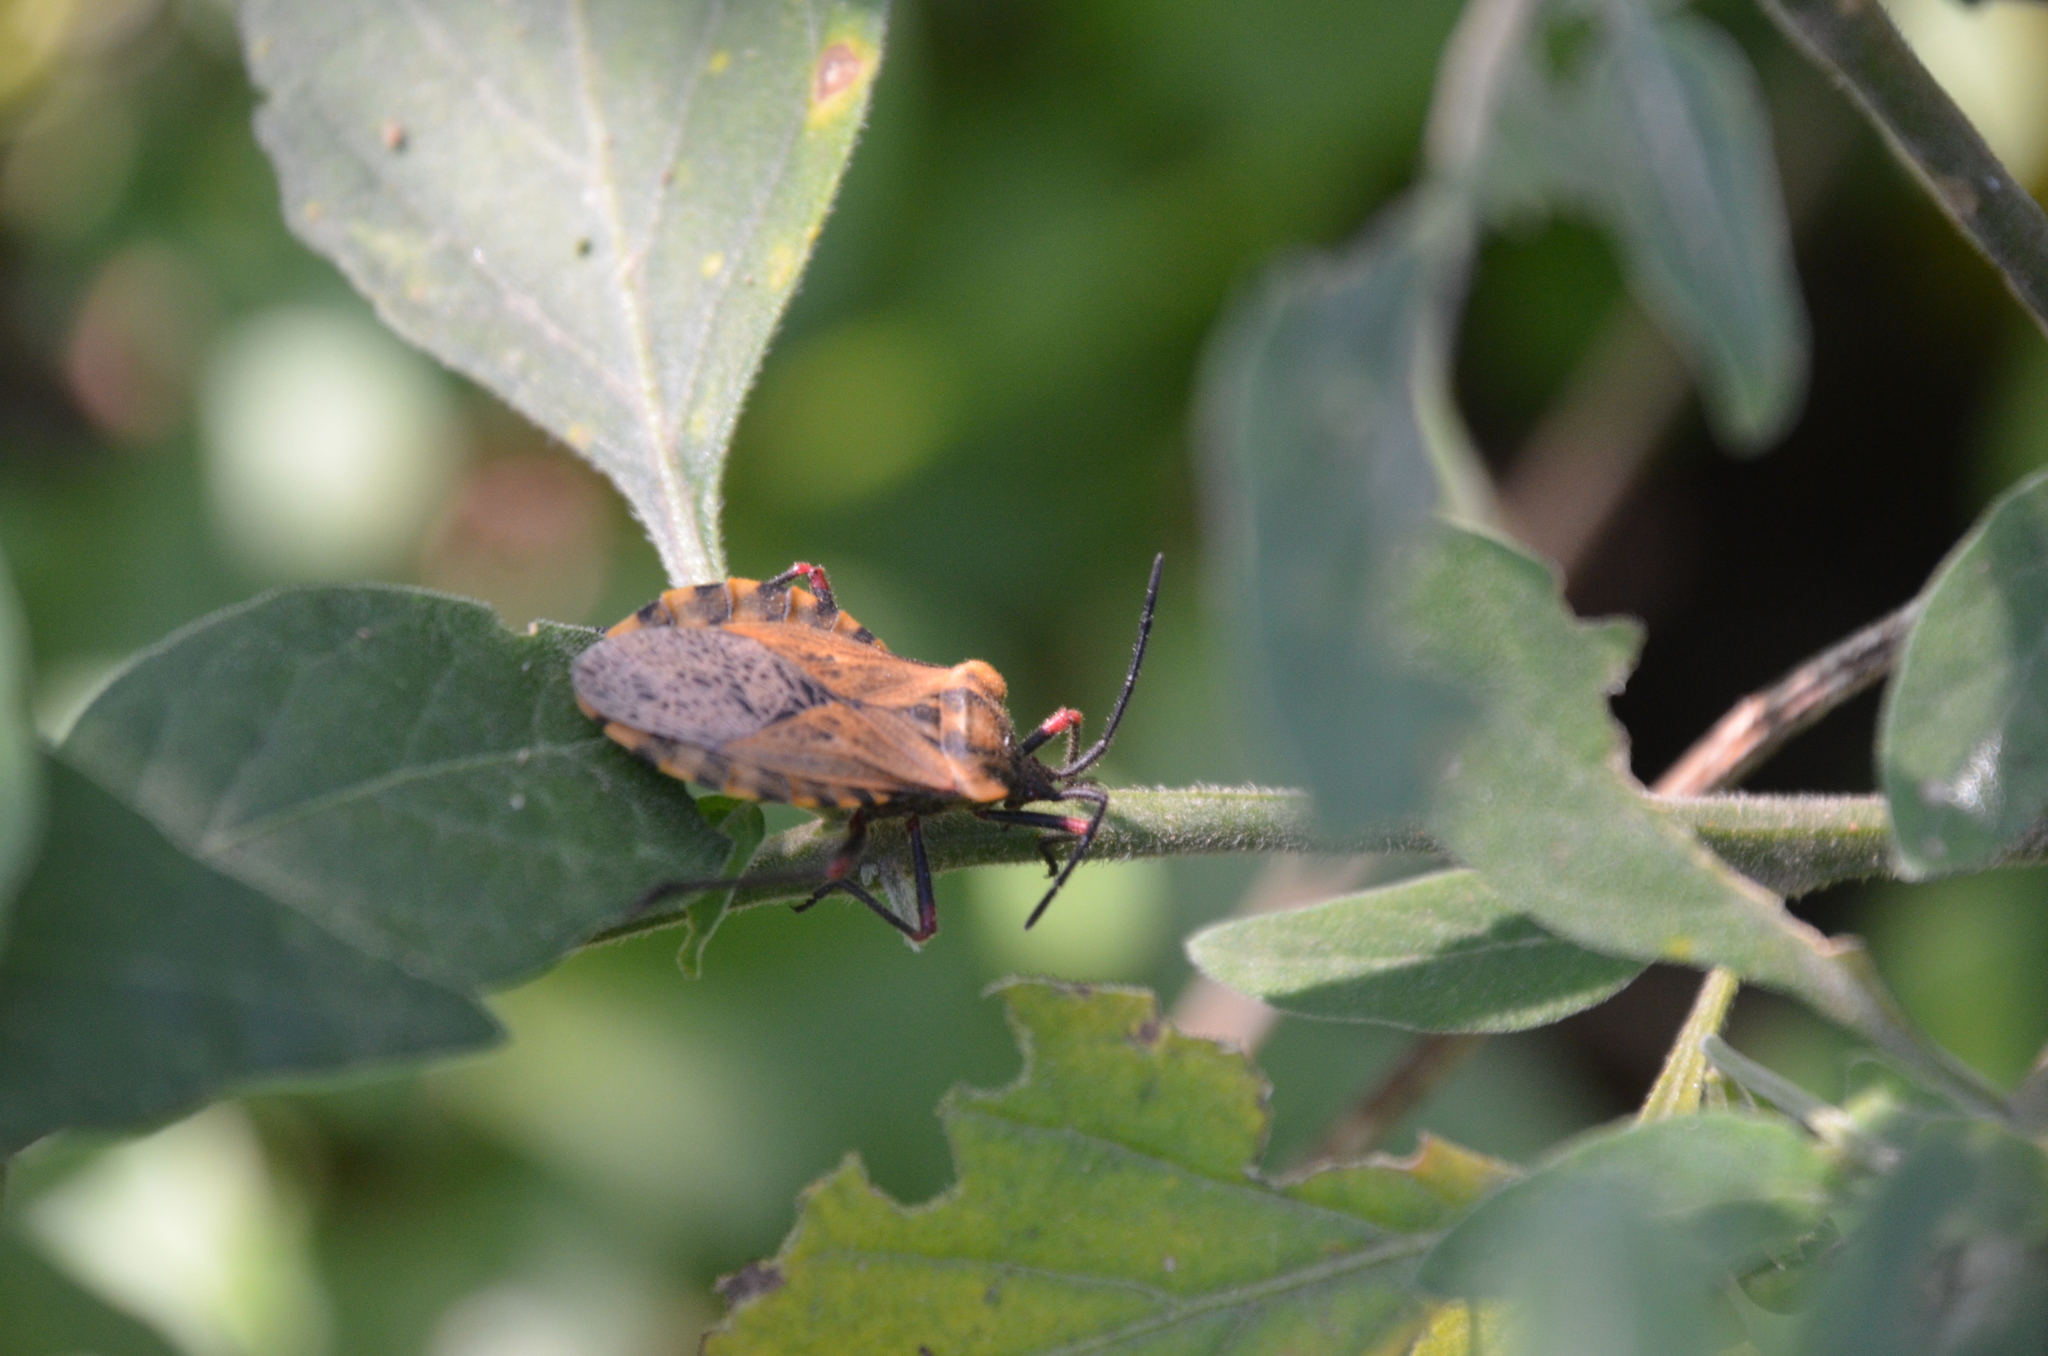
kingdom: Animalia
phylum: Arthropoda
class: Insecta
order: Hemiptera
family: Coreidae
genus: Spartocera
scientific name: Spartocera fusca
